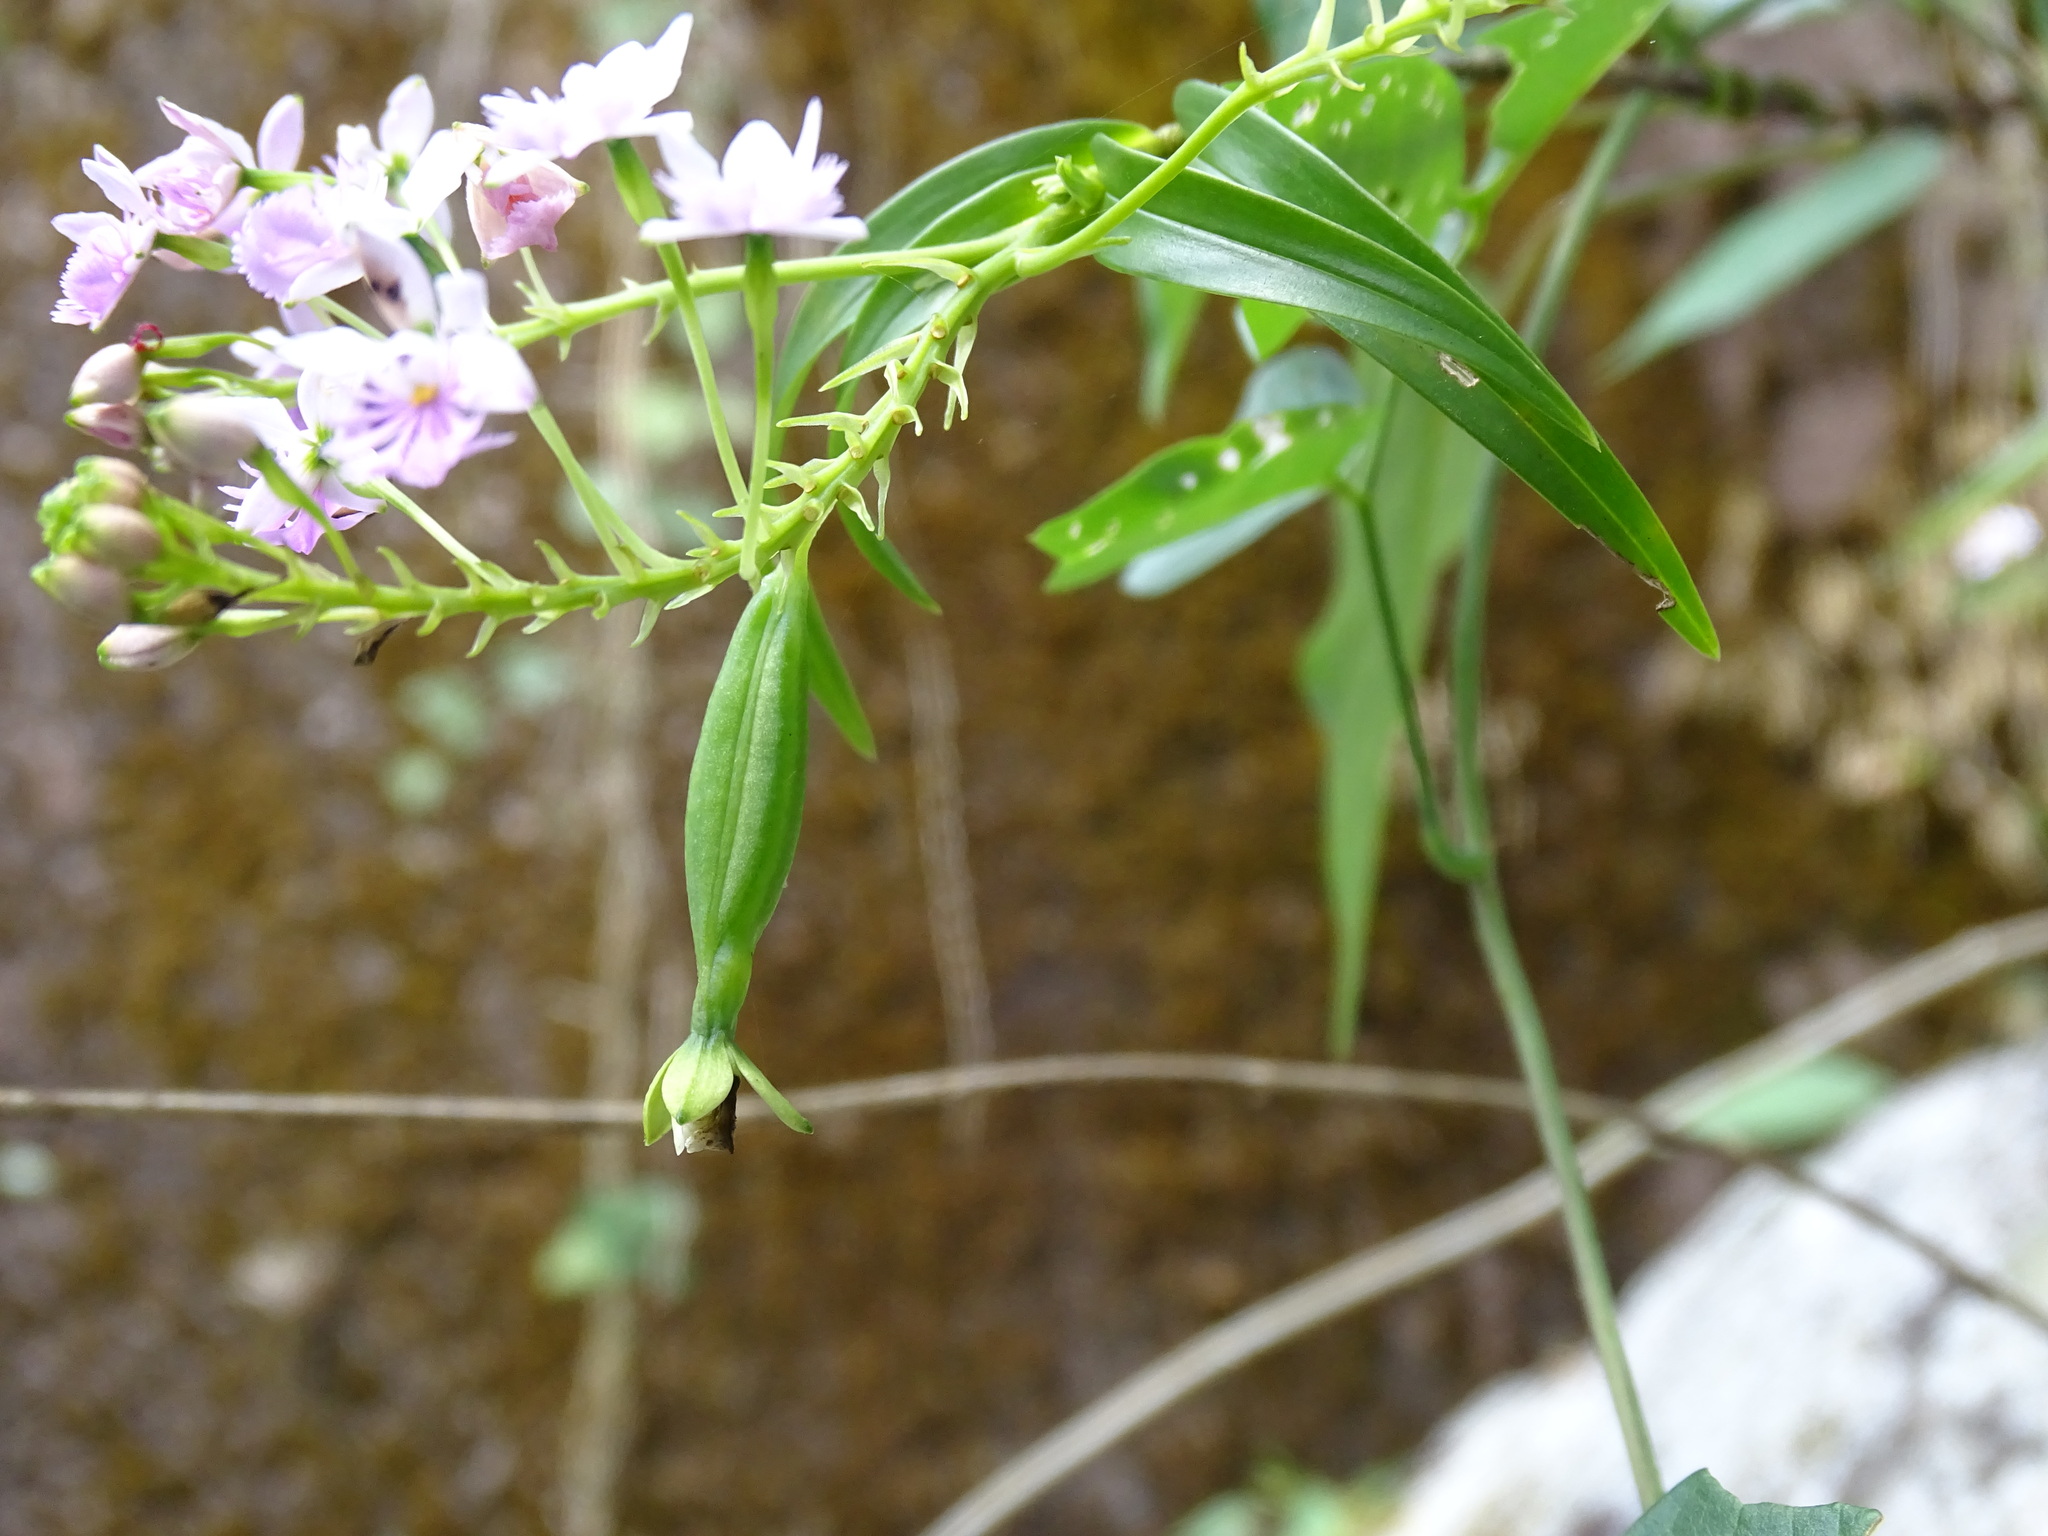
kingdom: Plantae
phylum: Tracheophyta
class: Liliopsida
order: Asparagales
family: Orchidaceae
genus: Epidendrum
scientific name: Epidendrum caligarium
